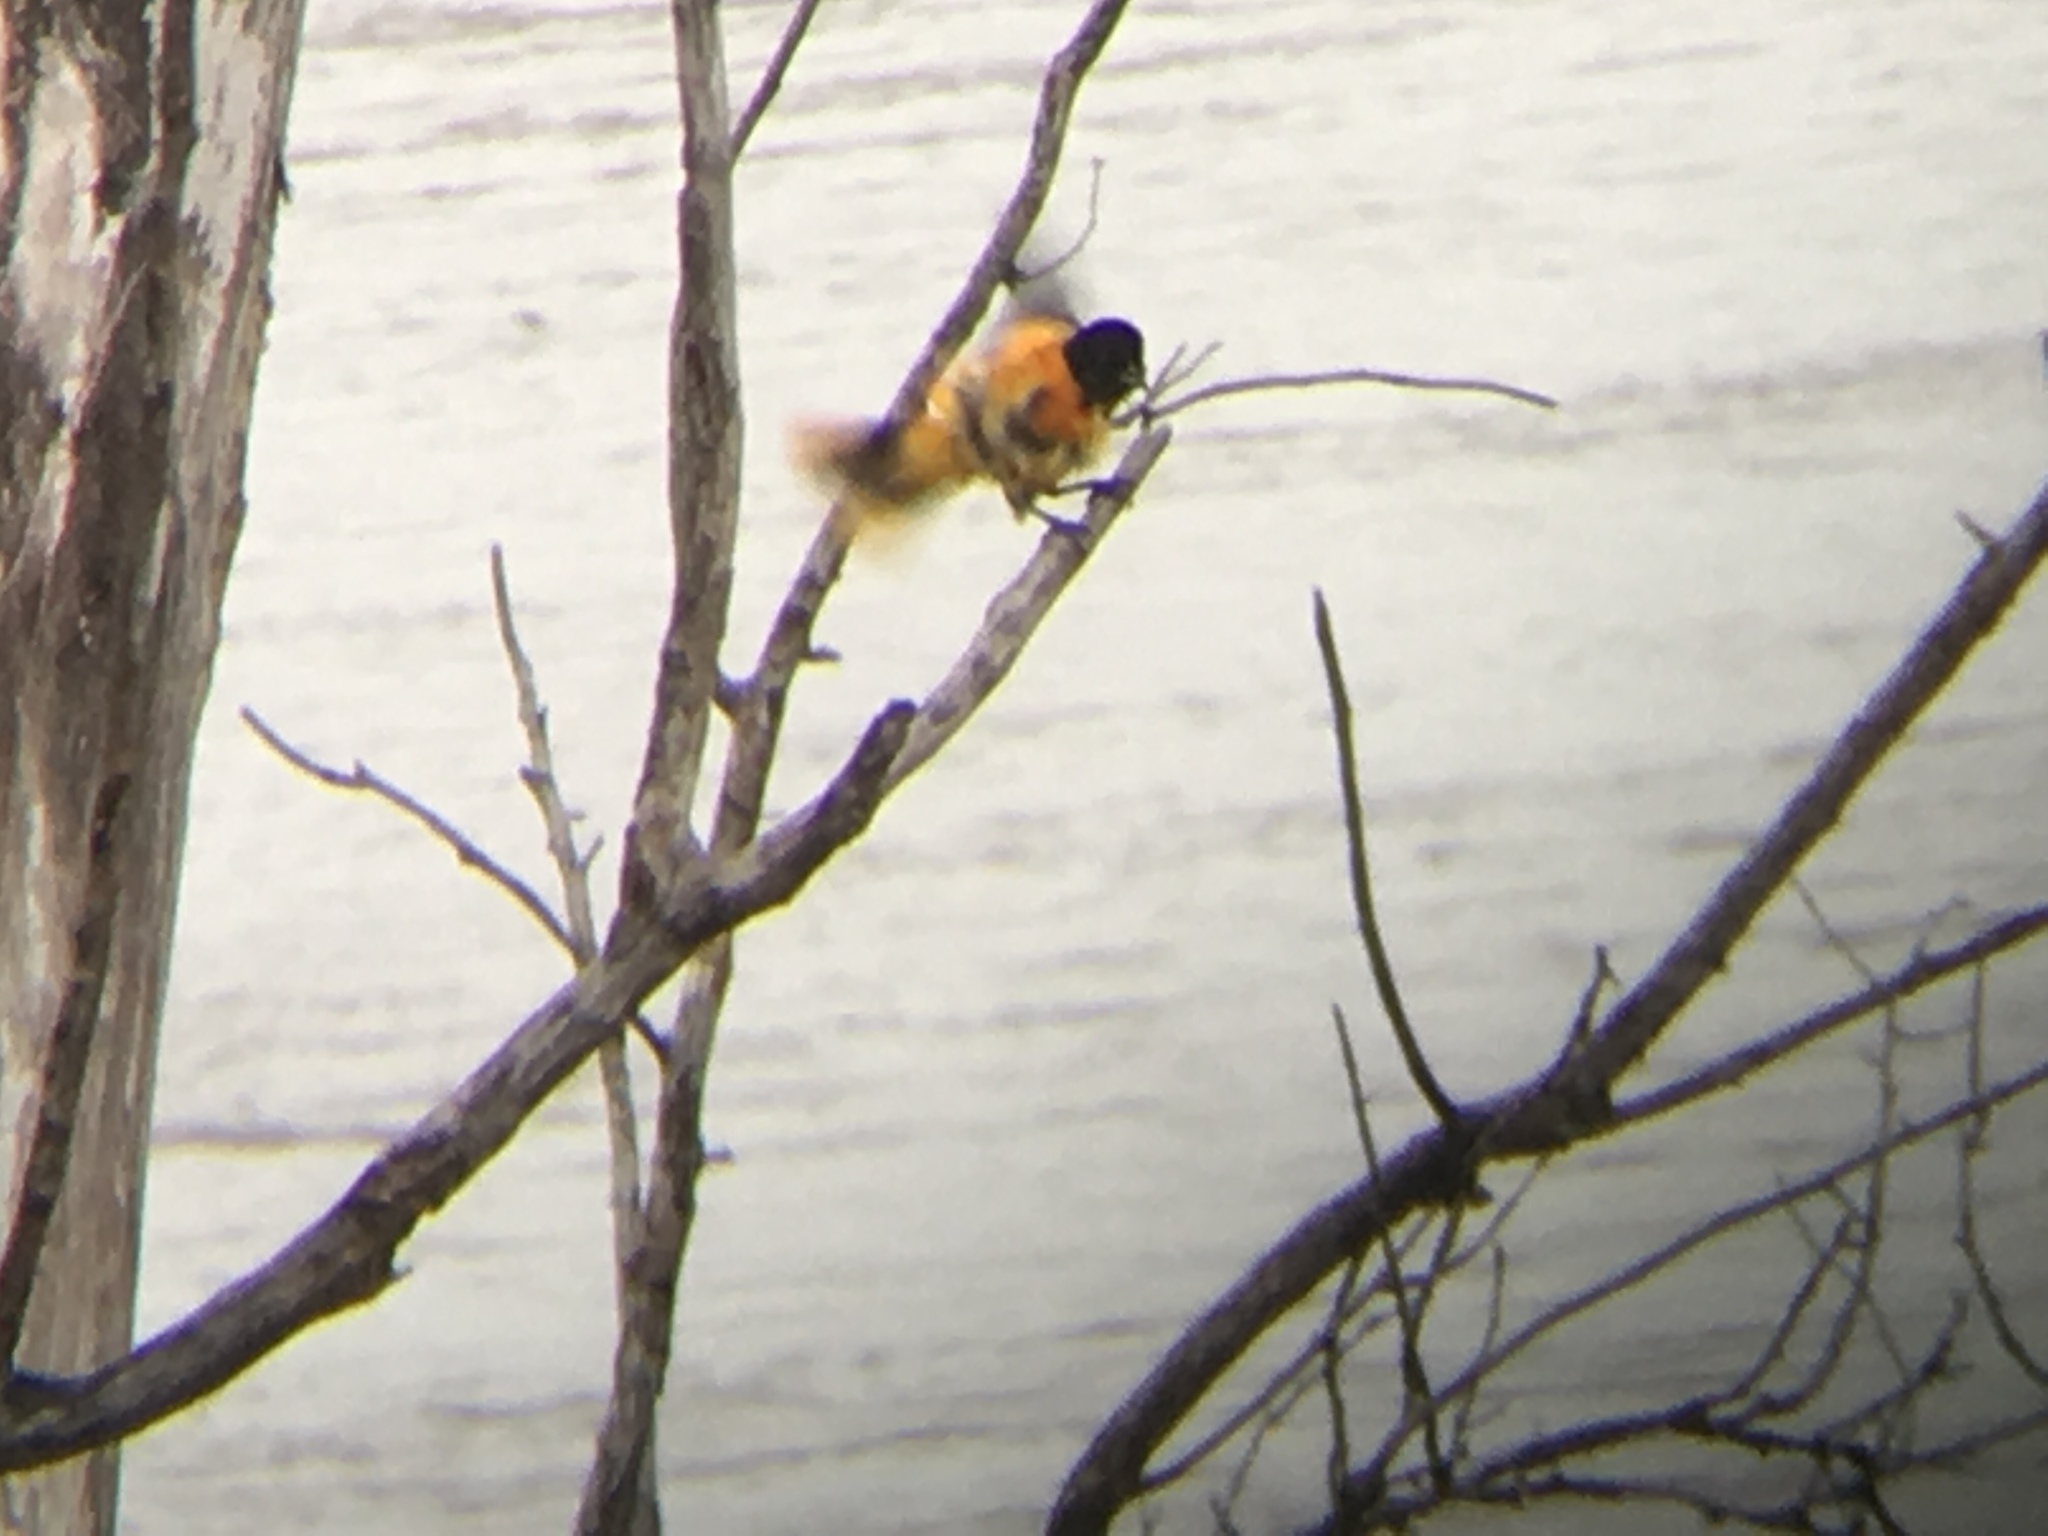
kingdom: Animalia
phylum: Chordata
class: Aves
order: Passeriformes
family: Icteridae
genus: Icterus
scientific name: Icterus galbula
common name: Baltimore oriole
